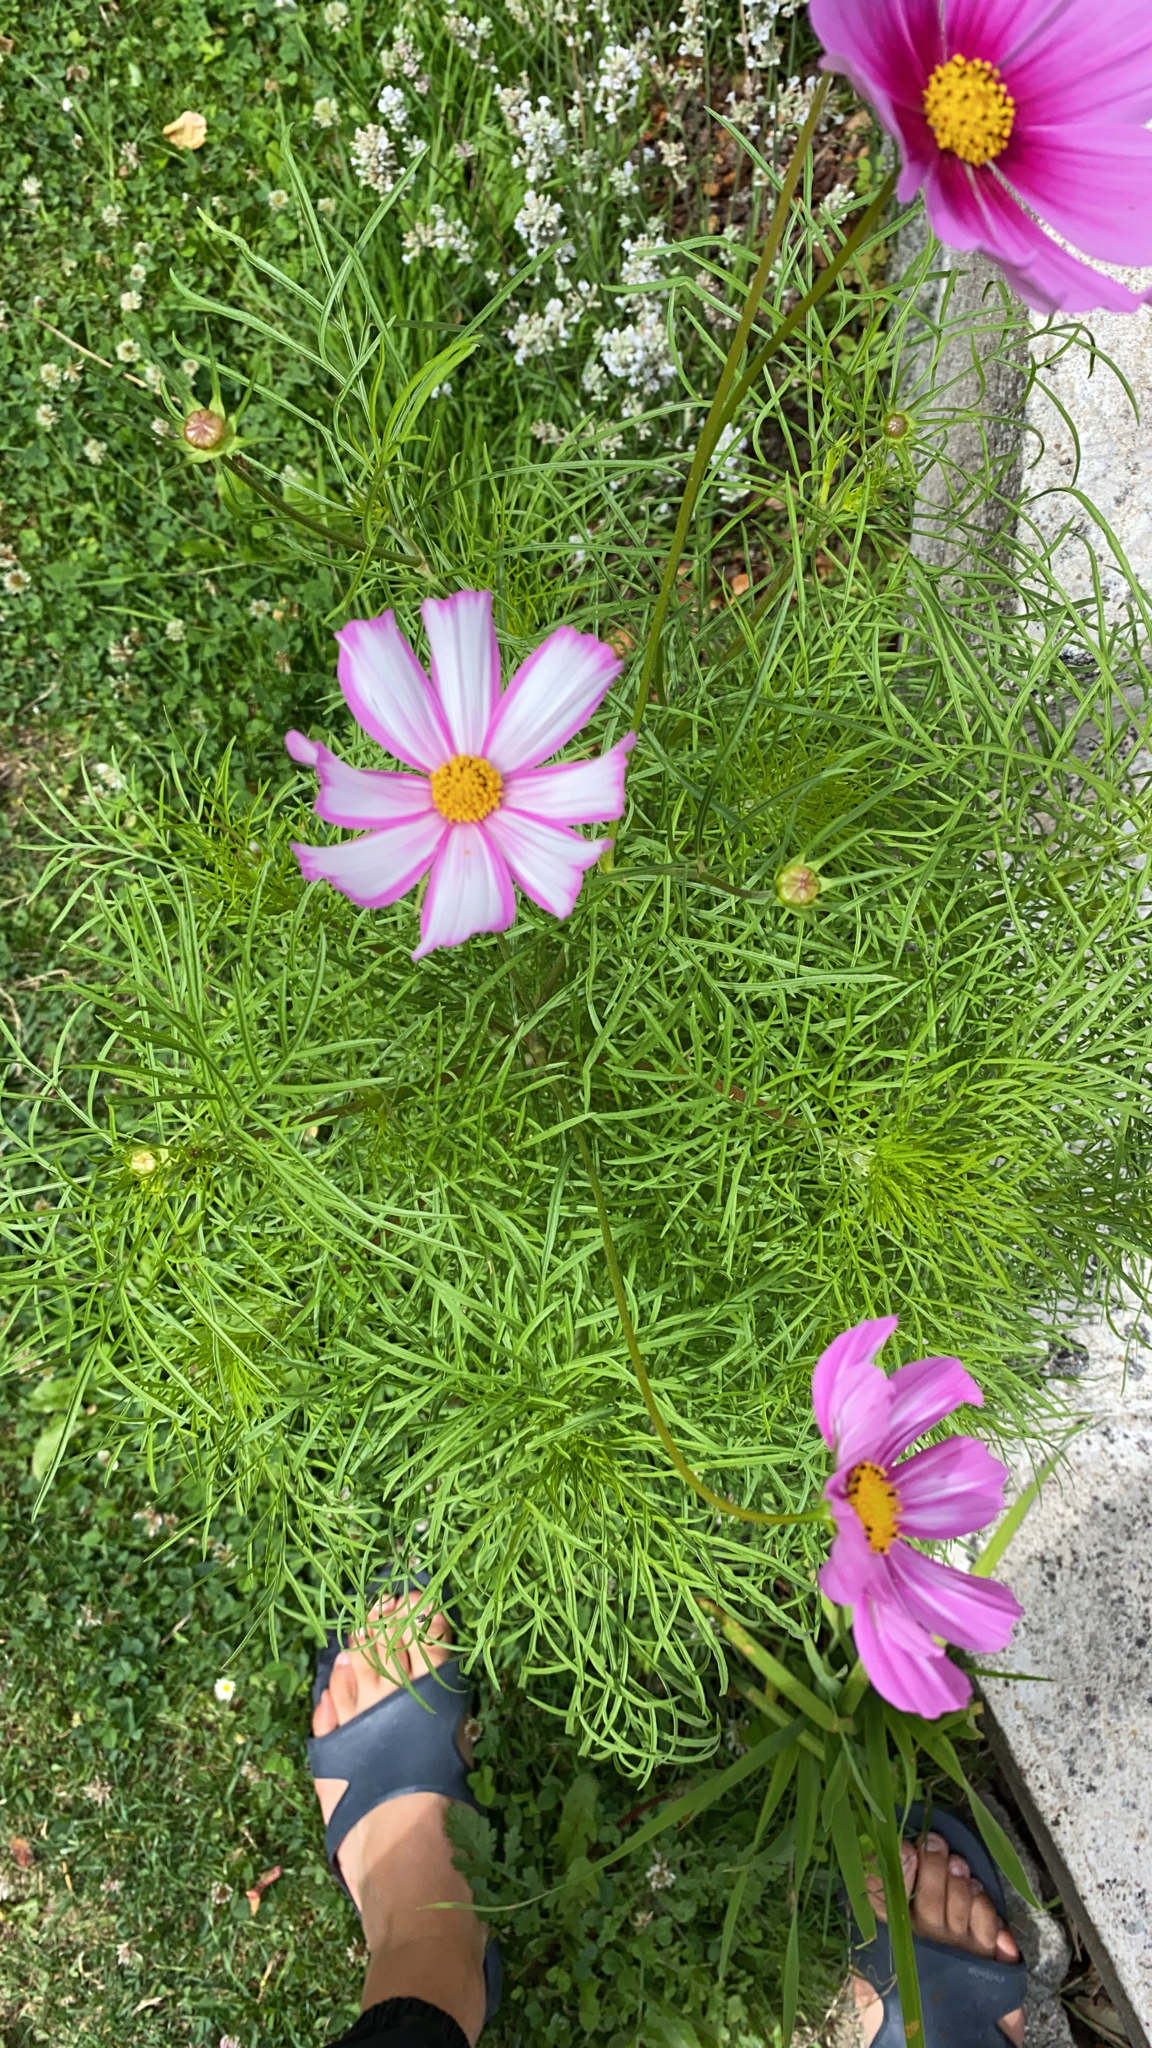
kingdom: Plantae
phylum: Tracheophyta
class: Magnoliopsida
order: Asterales
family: Asteraceae
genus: Cosmos
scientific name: Cosmos bipinnatus
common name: Garden cosmos
